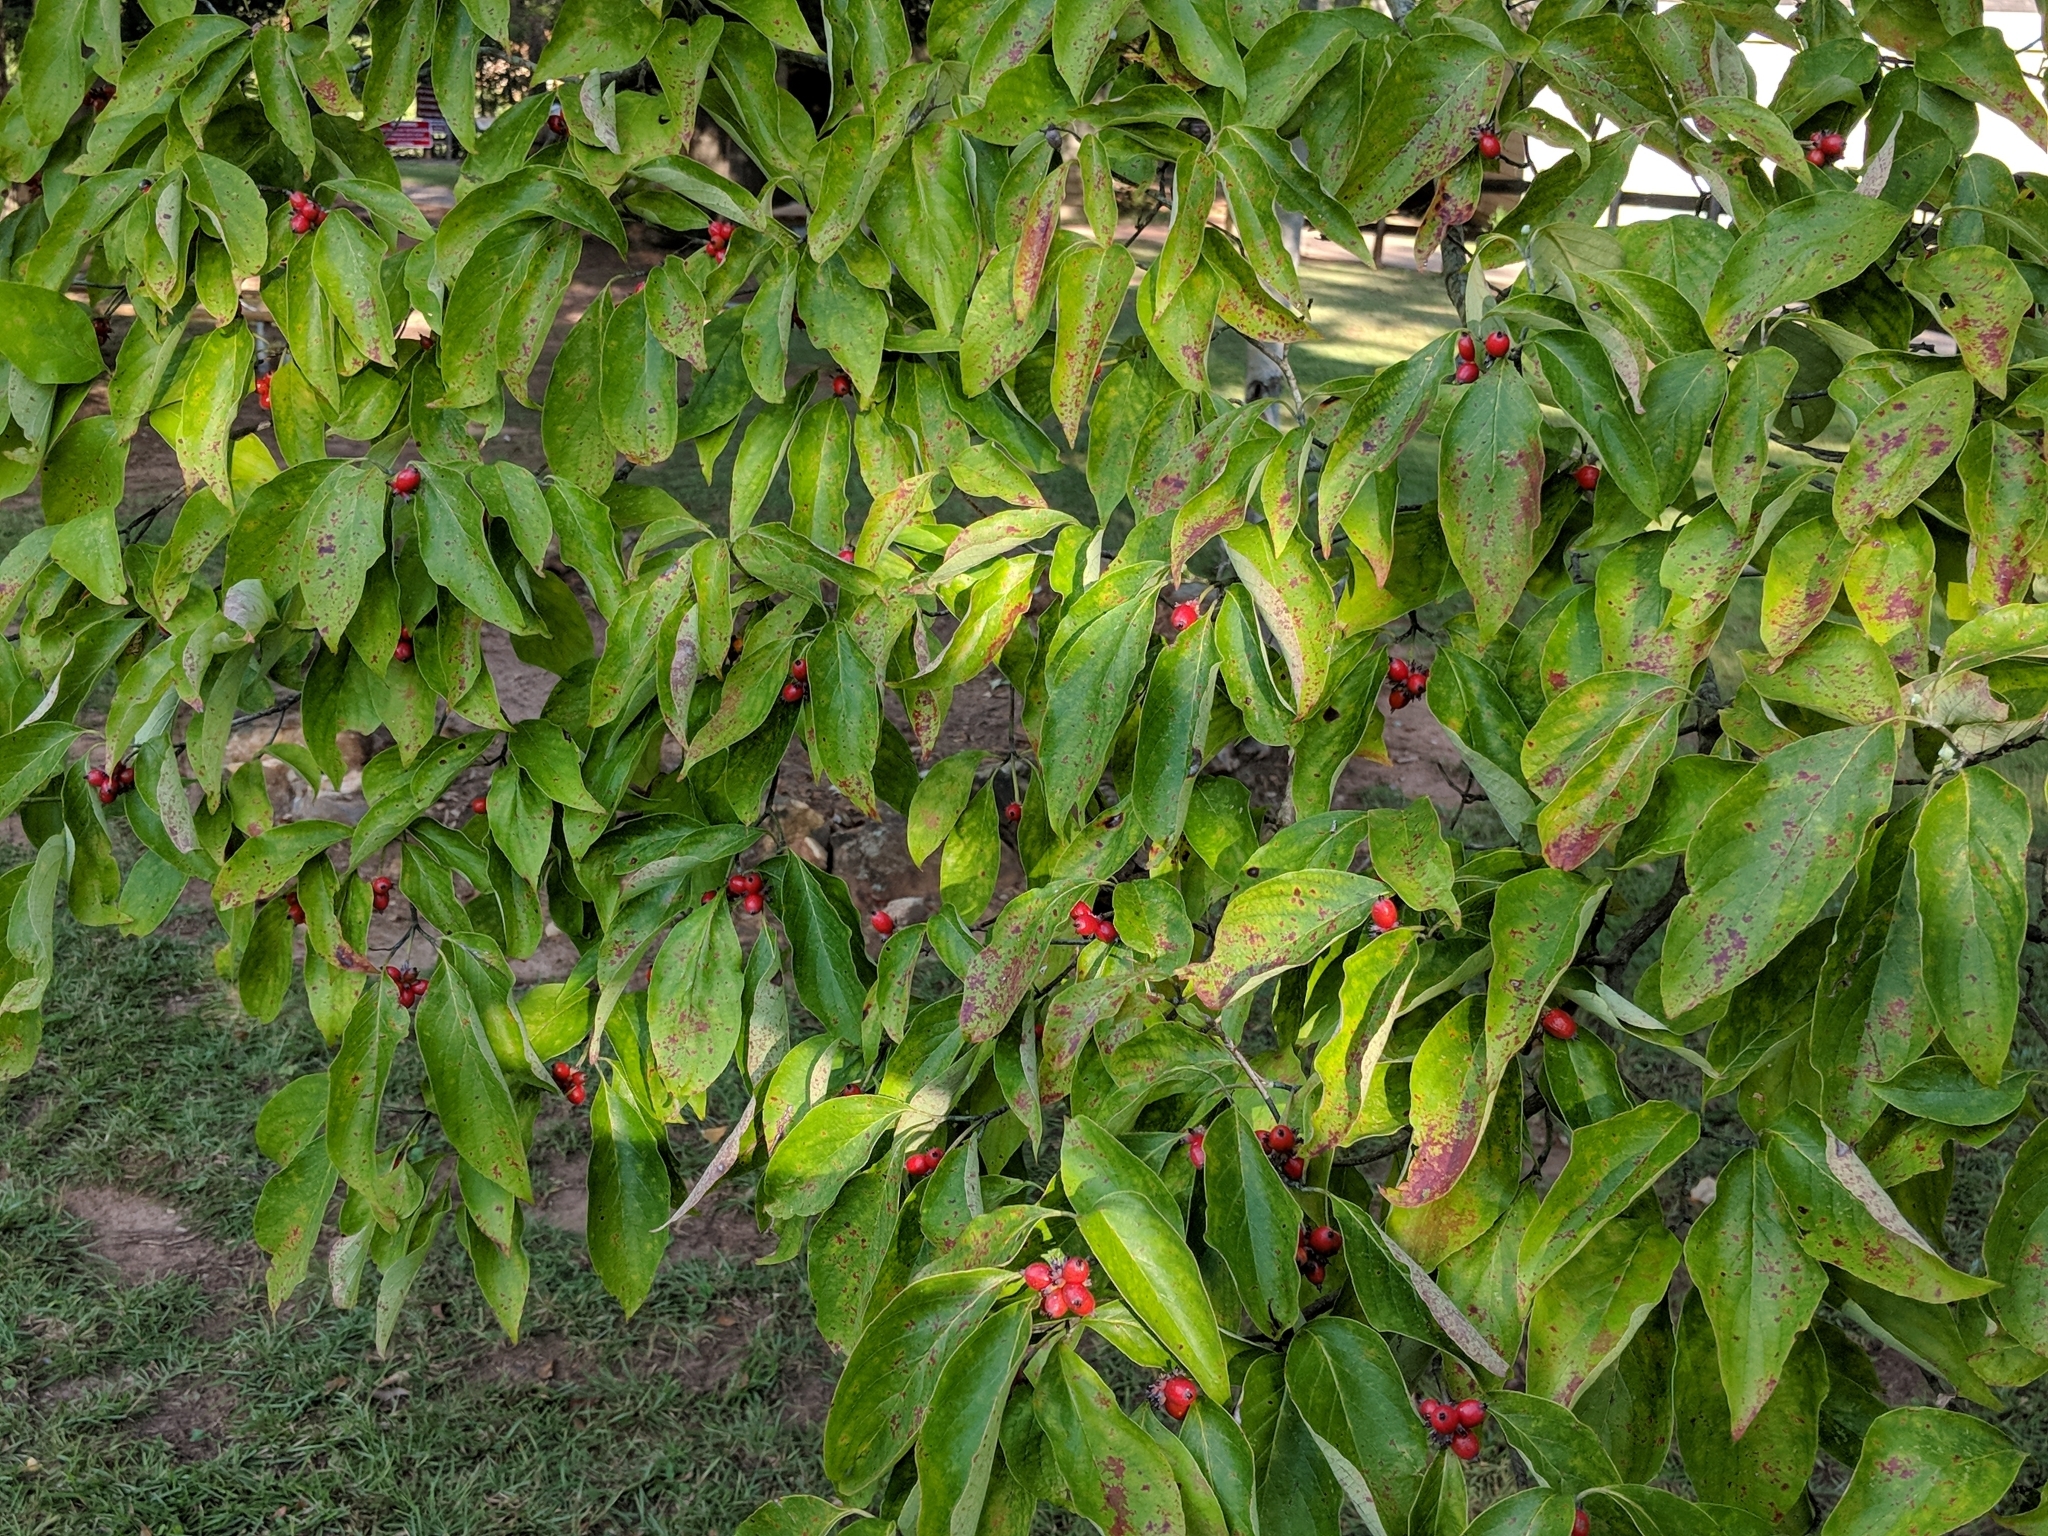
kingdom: Plantae
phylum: Tracheophyta
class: Magnoliopsida
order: Cornales
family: Cornaceae
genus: Cornus
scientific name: Cornus florida
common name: Flowering dogwood
